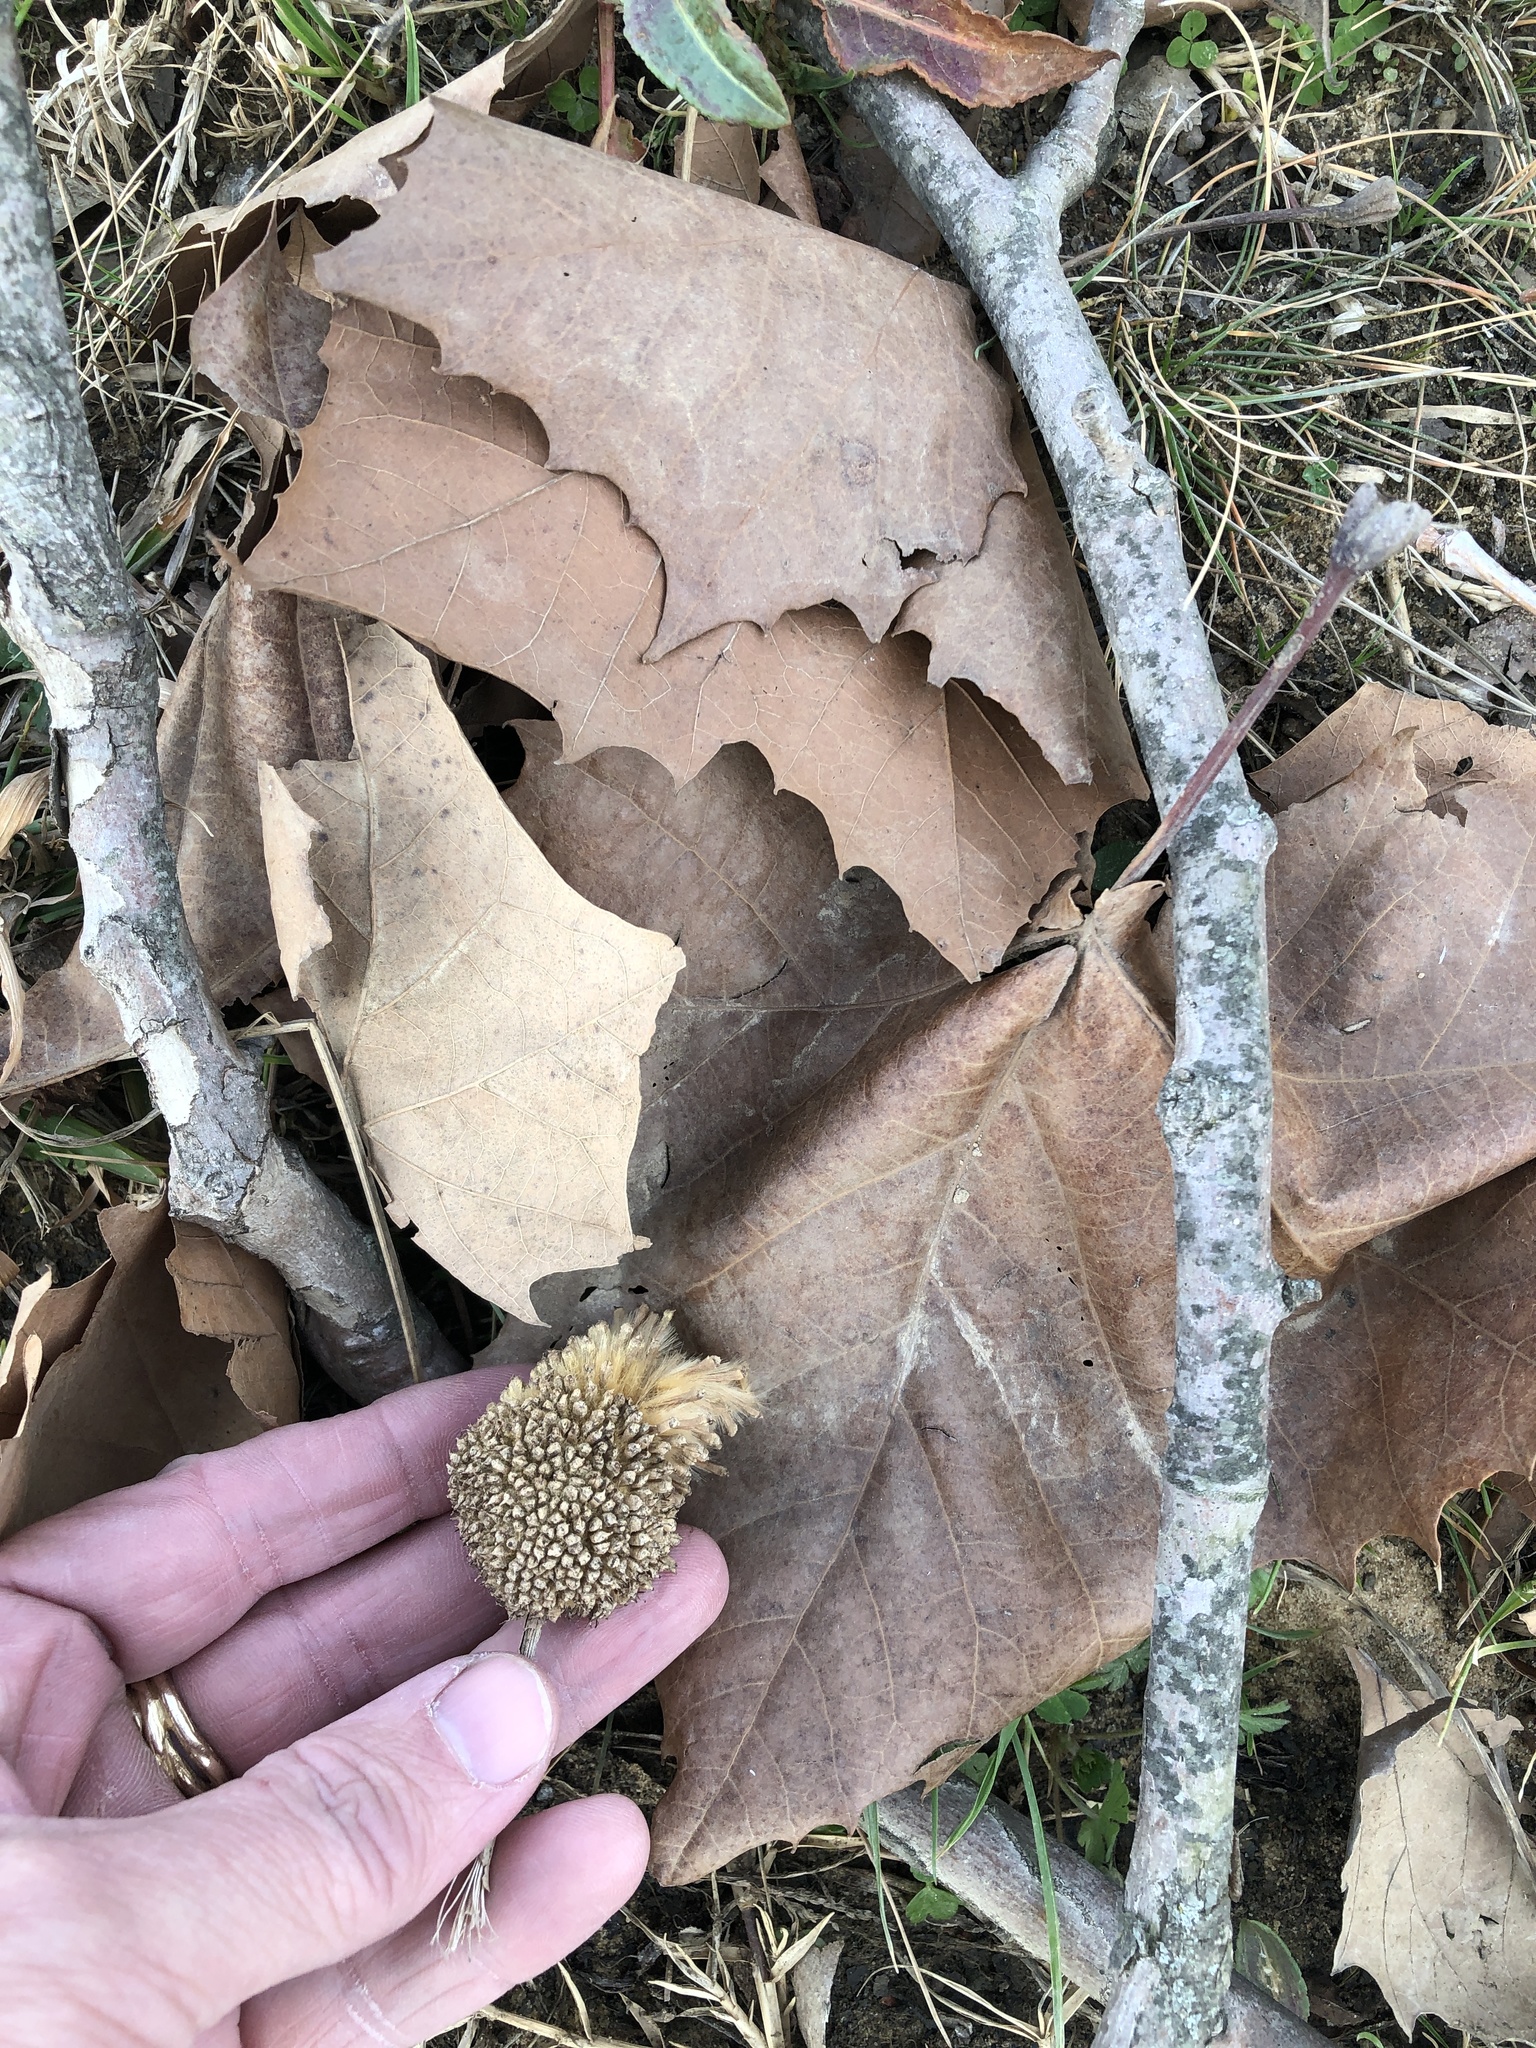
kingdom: Plantae
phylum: Tracheophyta
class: Magnoliopsida
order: Proteales
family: Platanaceae
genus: Platanus
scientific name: Platanus occidentalis
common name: American sycamore
